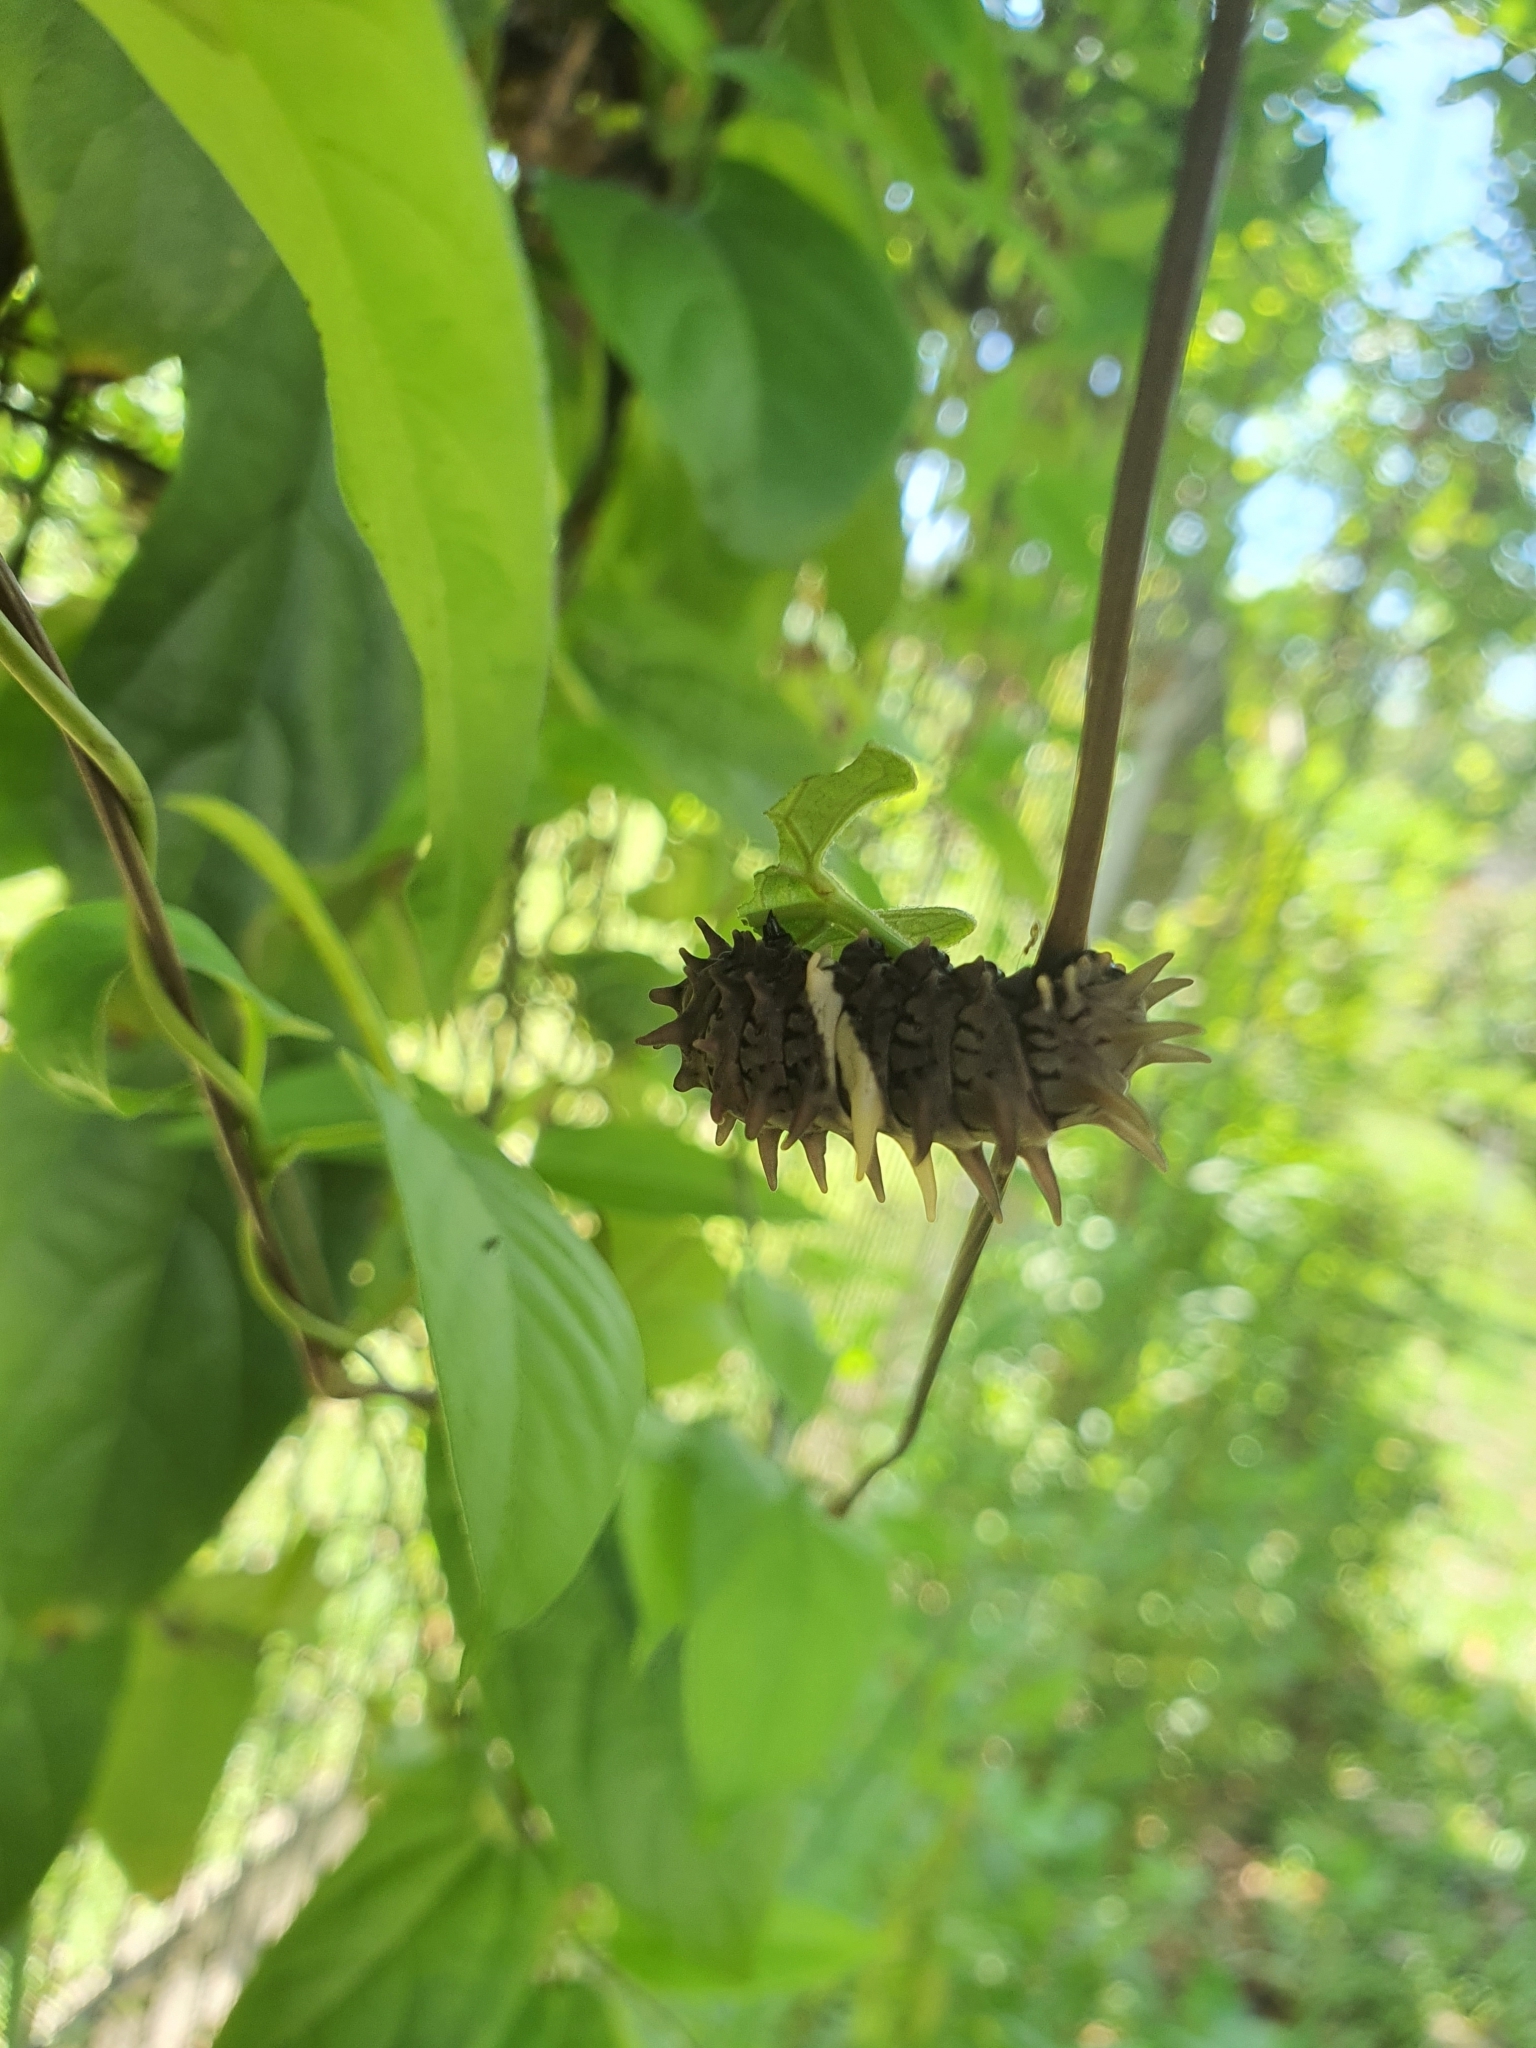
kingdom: Animalia
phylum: Arthropoda
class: Insecta
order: Lepidoptera
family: Papilionidae
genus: Troides
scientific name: Troides helena
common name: Common birdwing
